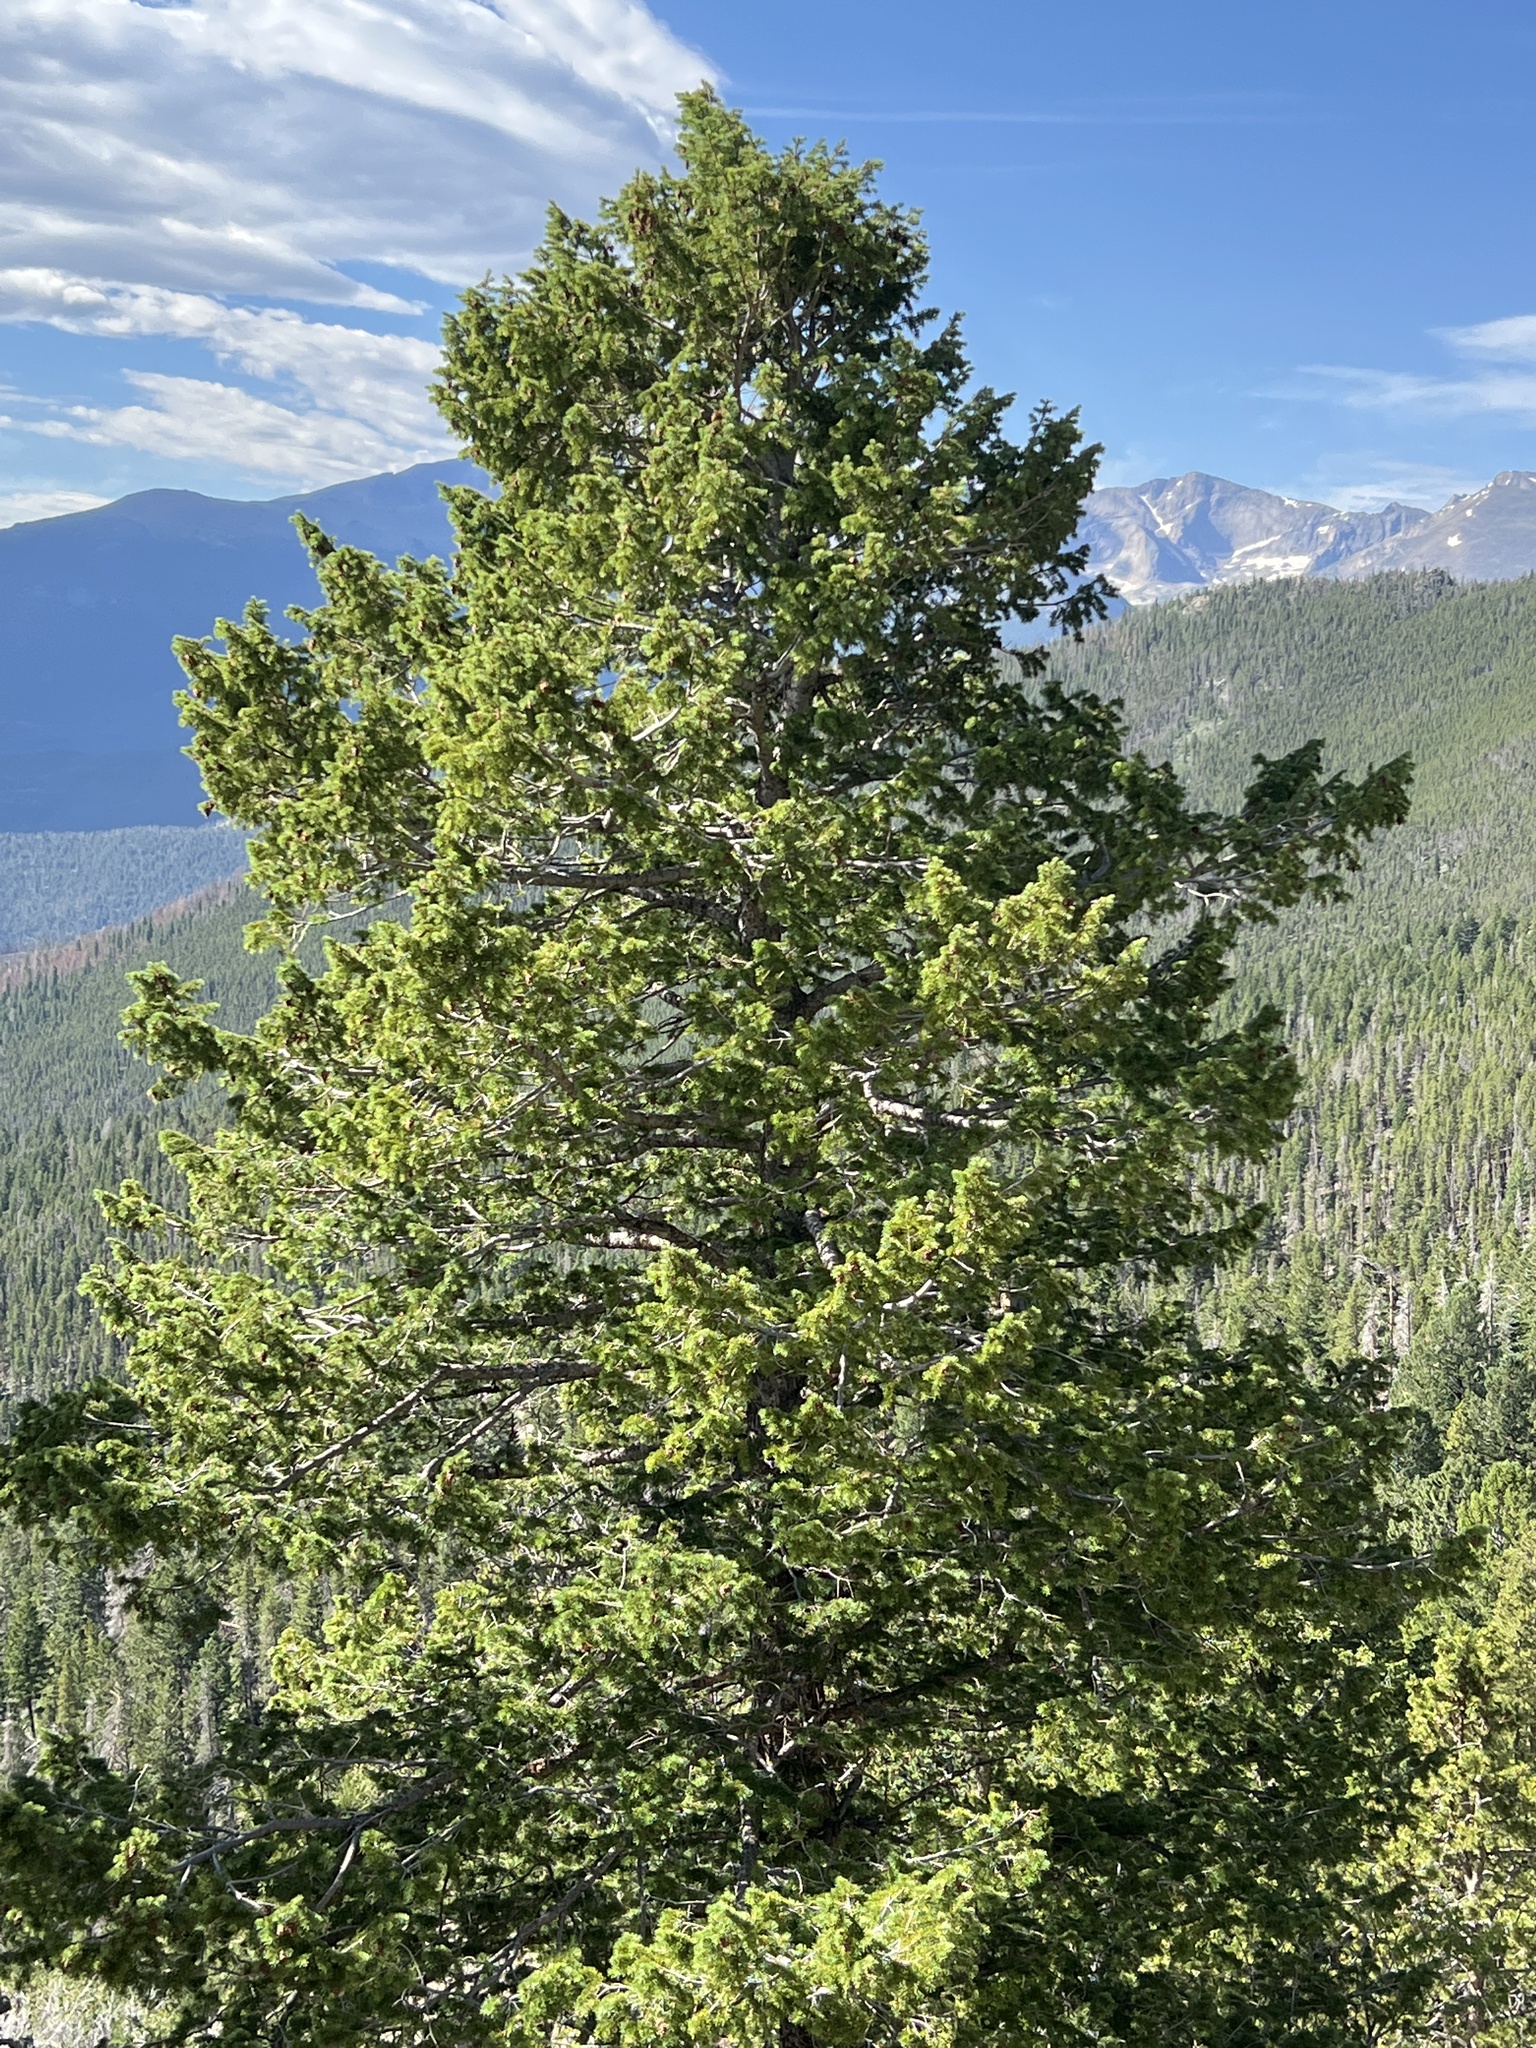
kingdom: Plantae
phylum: Tracheophyta
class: Pinopsida
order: Pinales
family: Pinaceae
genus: Pseudotsuga
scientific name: Pseudotsuga menziesii
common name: Douglas fir
